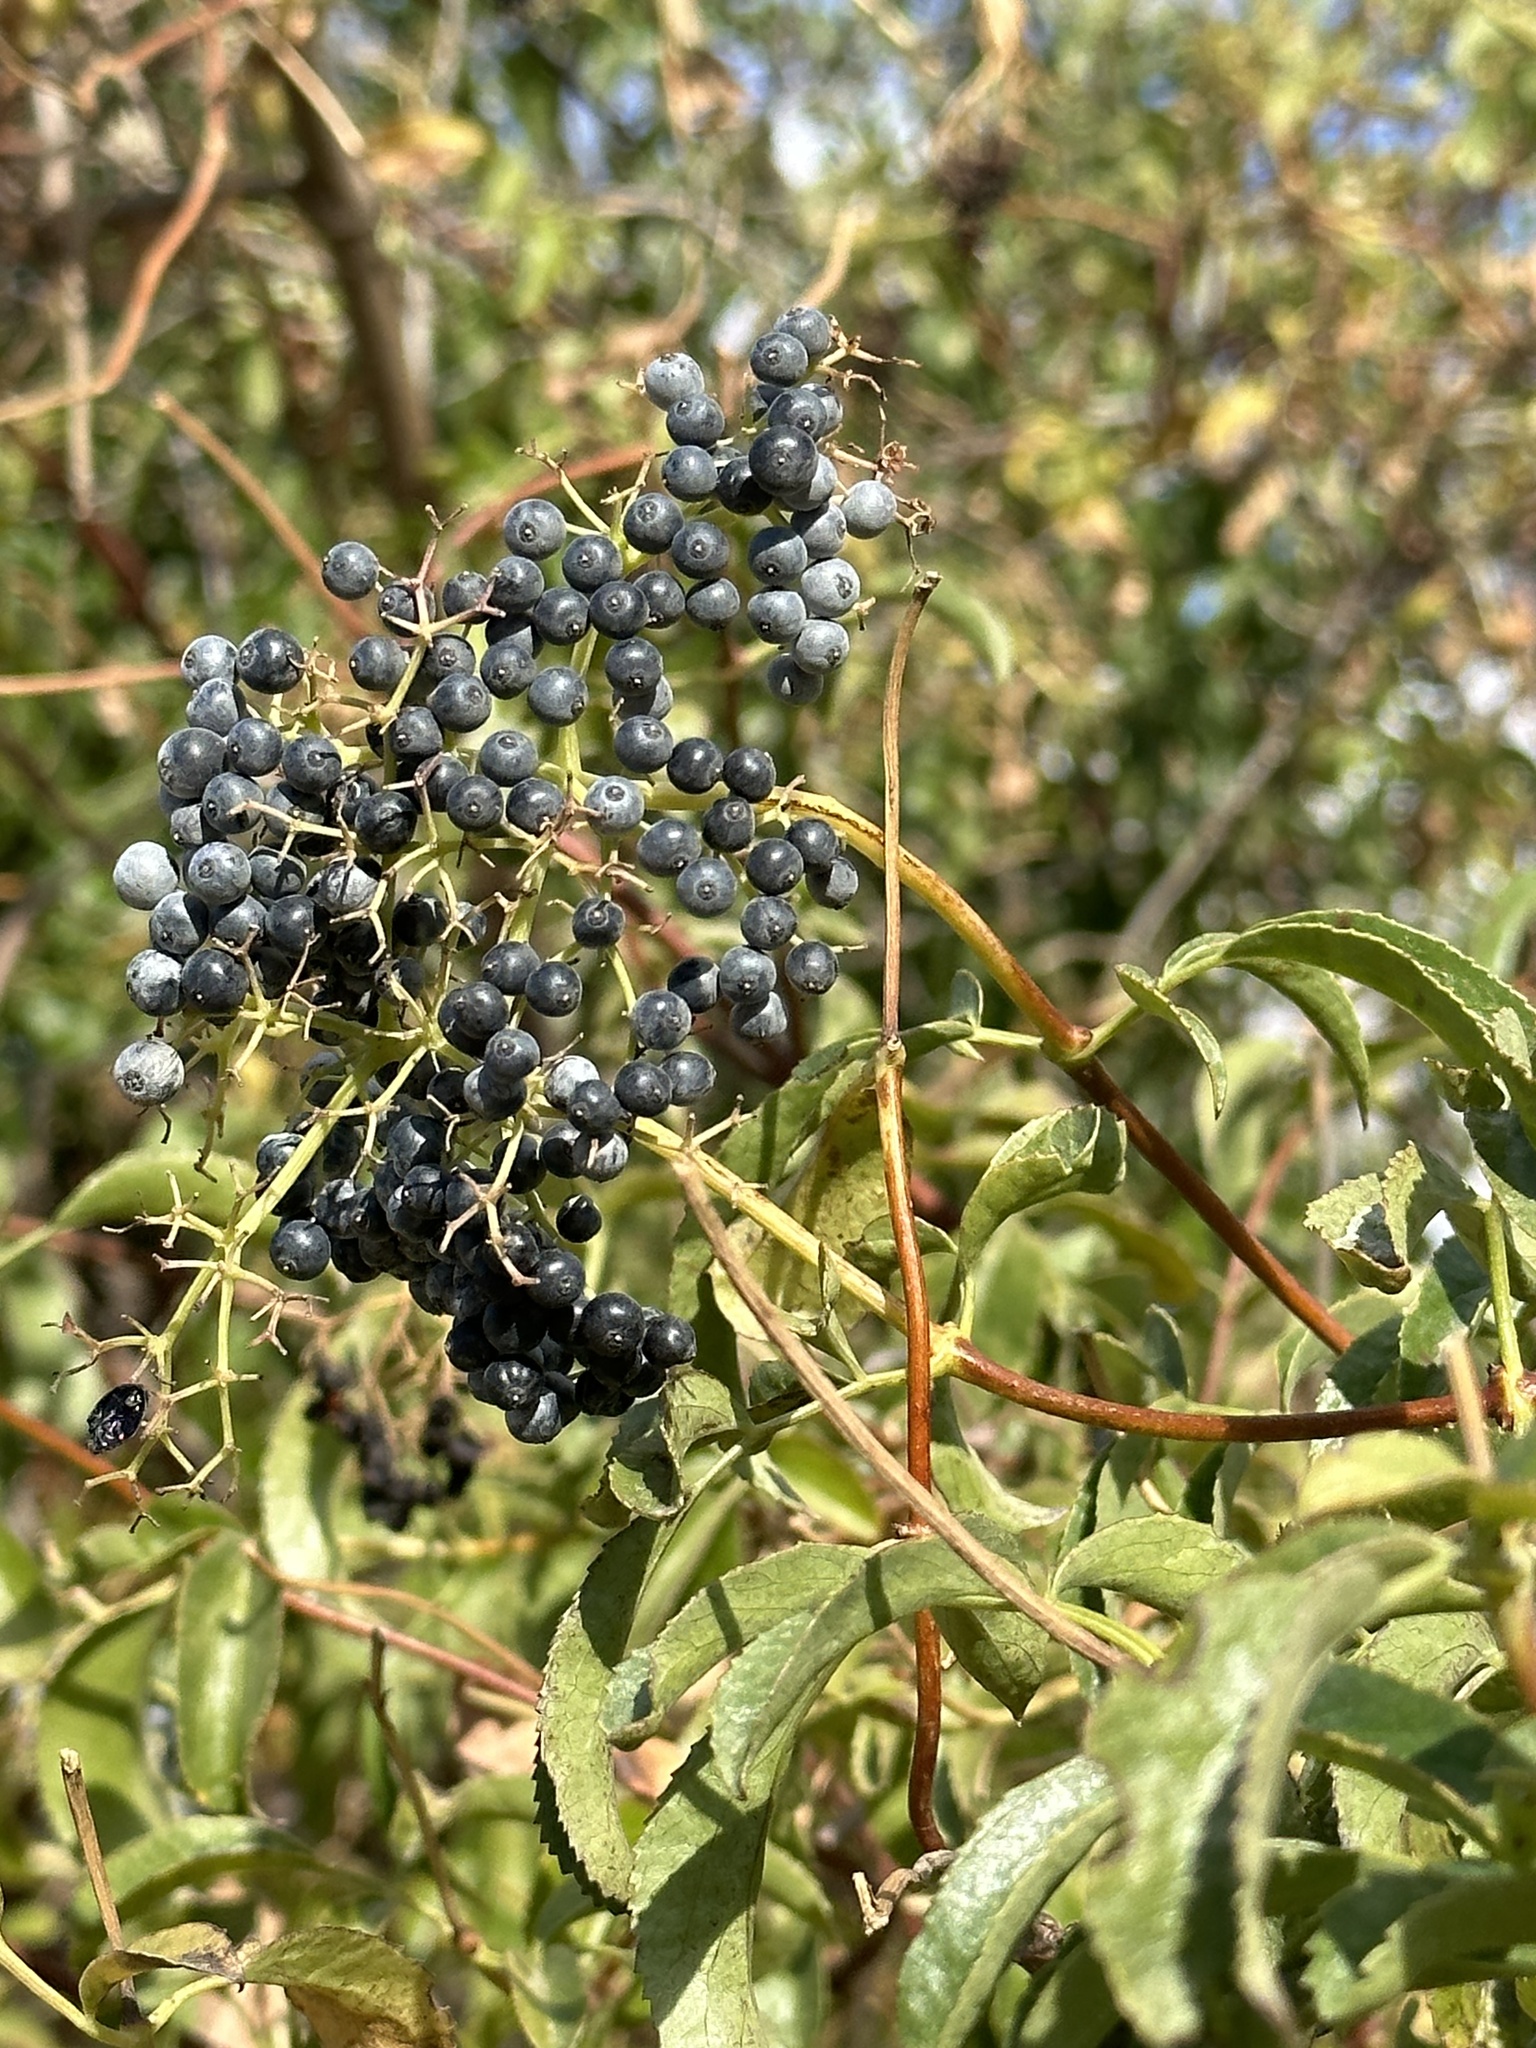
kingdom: Plantae
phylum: Tracheophyta
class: Magnoliopsida
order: Dipsacales
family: Viburnaceae
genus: Sambucus
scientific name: Sambucus cerulea
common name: Blue elder
